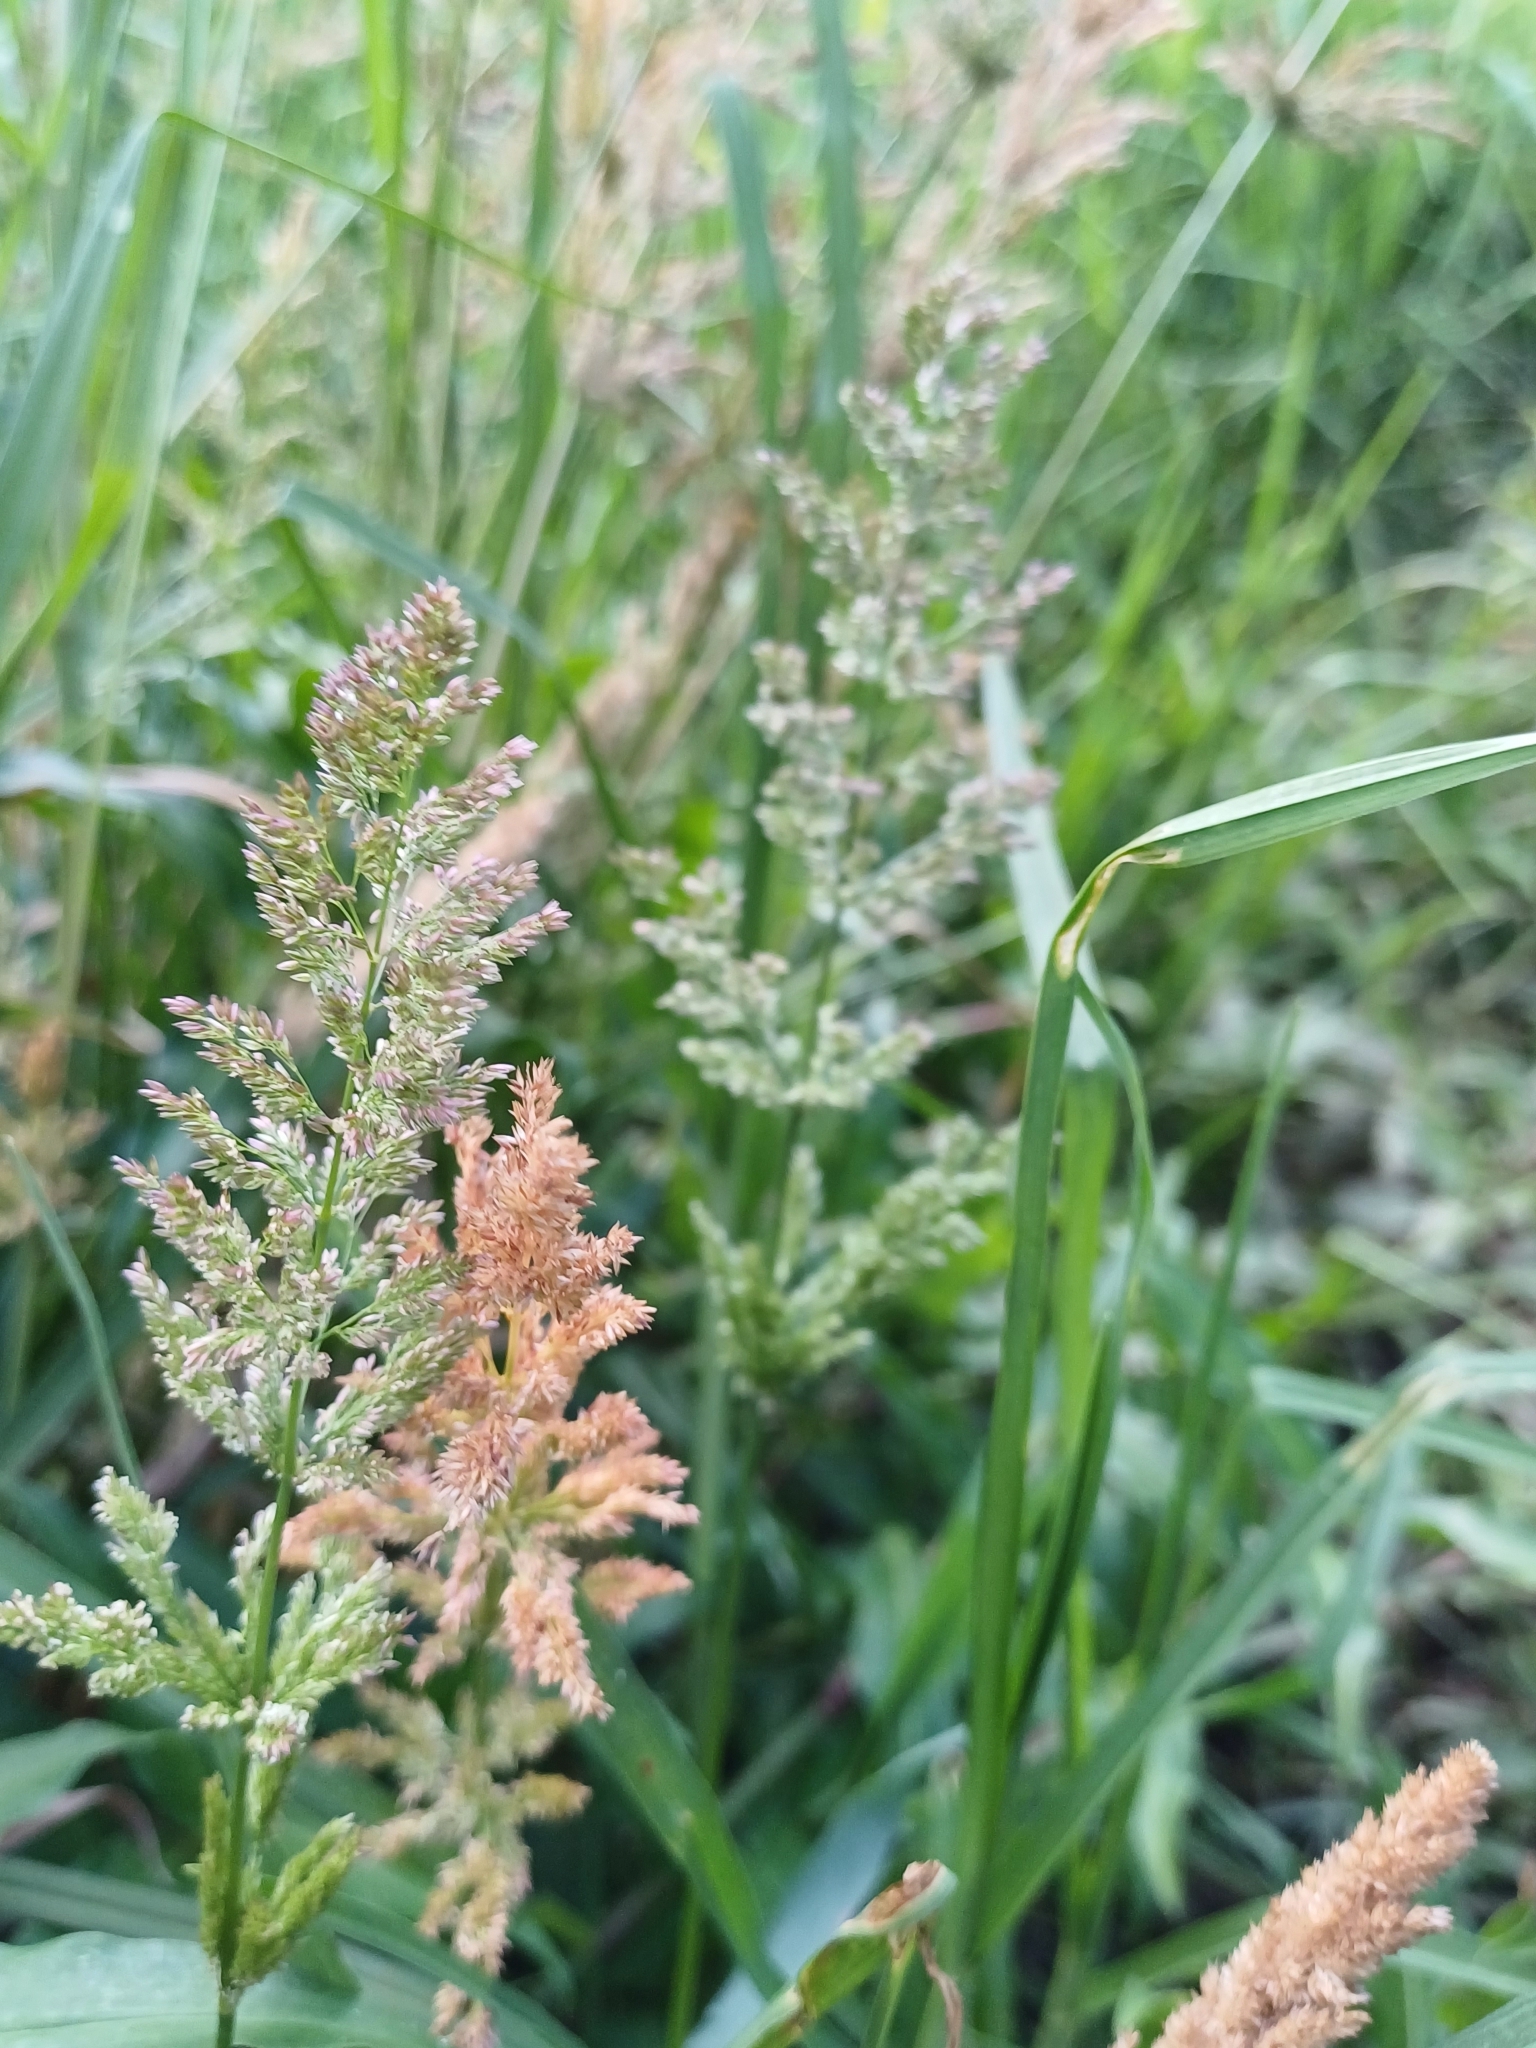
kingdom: Plantae
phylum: Tracheophyta
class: Liliopsida
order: Poales
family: Poaceae
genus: Holcus
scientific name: Holcus lanatus
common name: Yorkshire-fog
